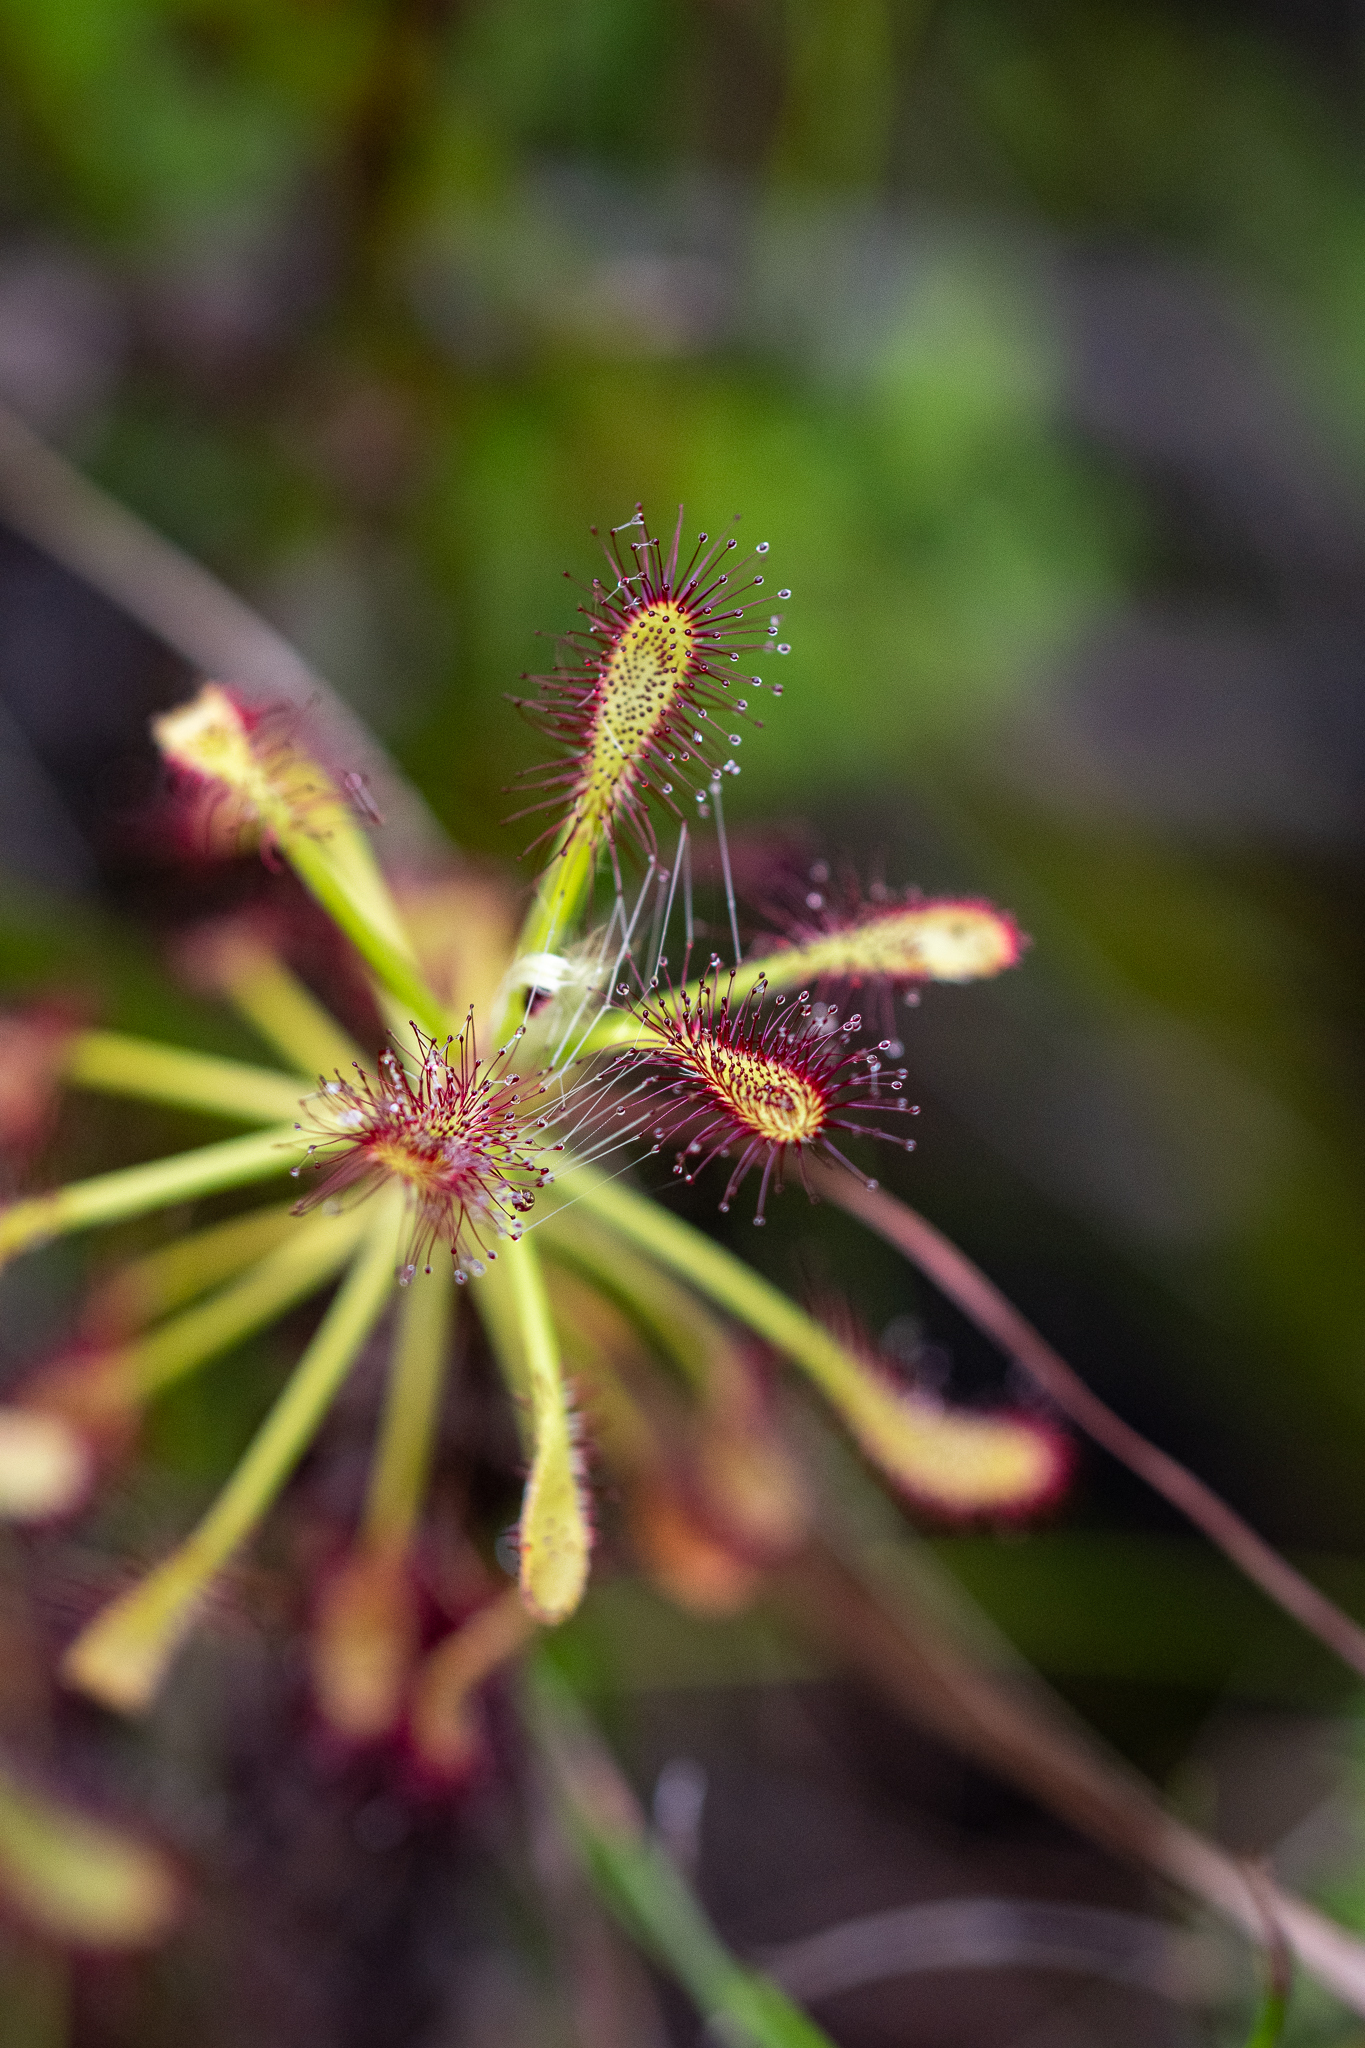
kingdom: Plantae
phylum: Tracheophyta
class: Magnoliopsida
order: Caryophyllales
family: Droseraceae
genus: Drosera
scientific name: Drosera glabripes
